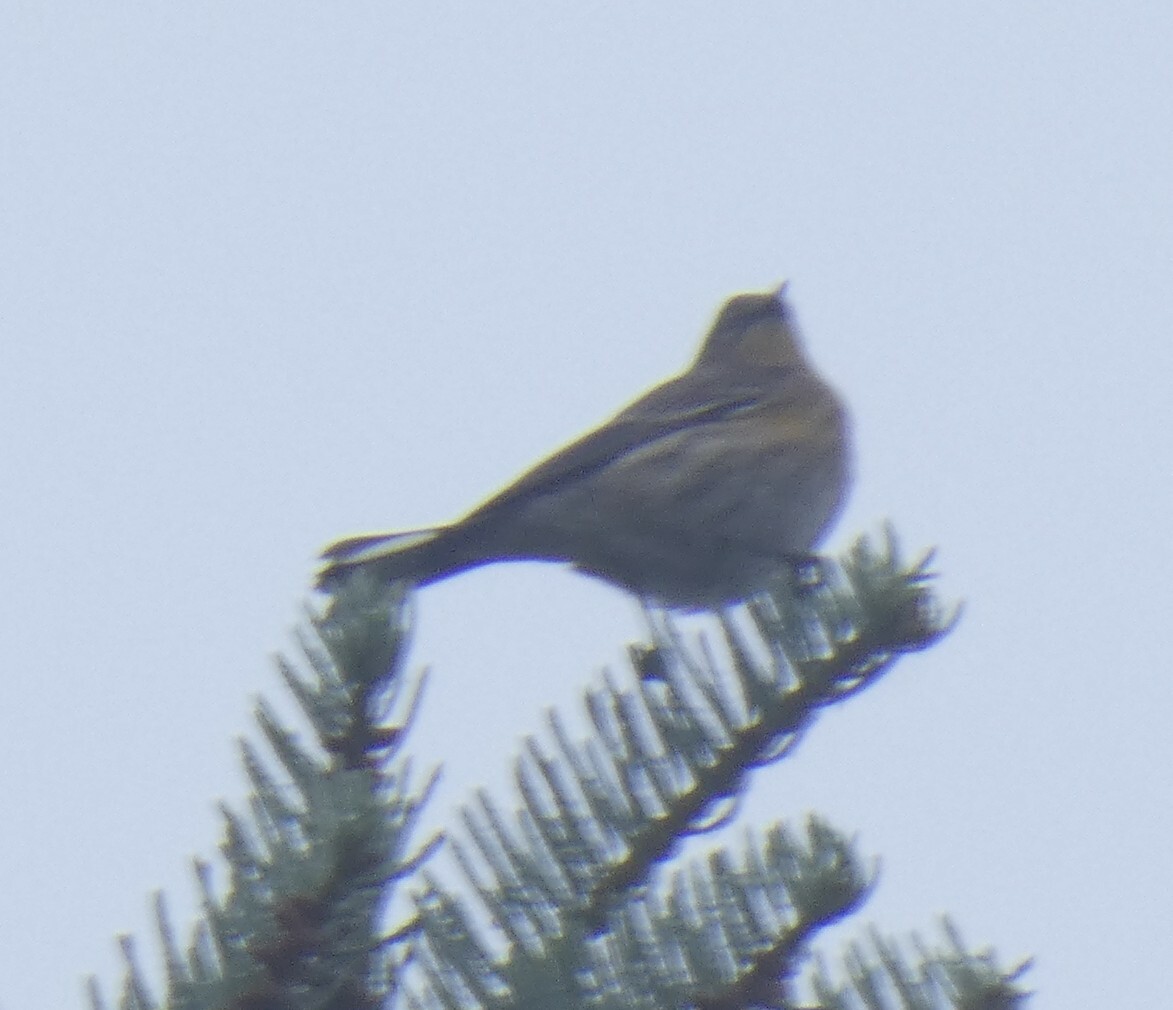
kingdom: Animalia
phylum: Chordata
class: Aves
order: Passeriformes
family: Parulidae
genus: Setophaga
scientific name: Setophaga coronata
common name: Myrtle warbler
